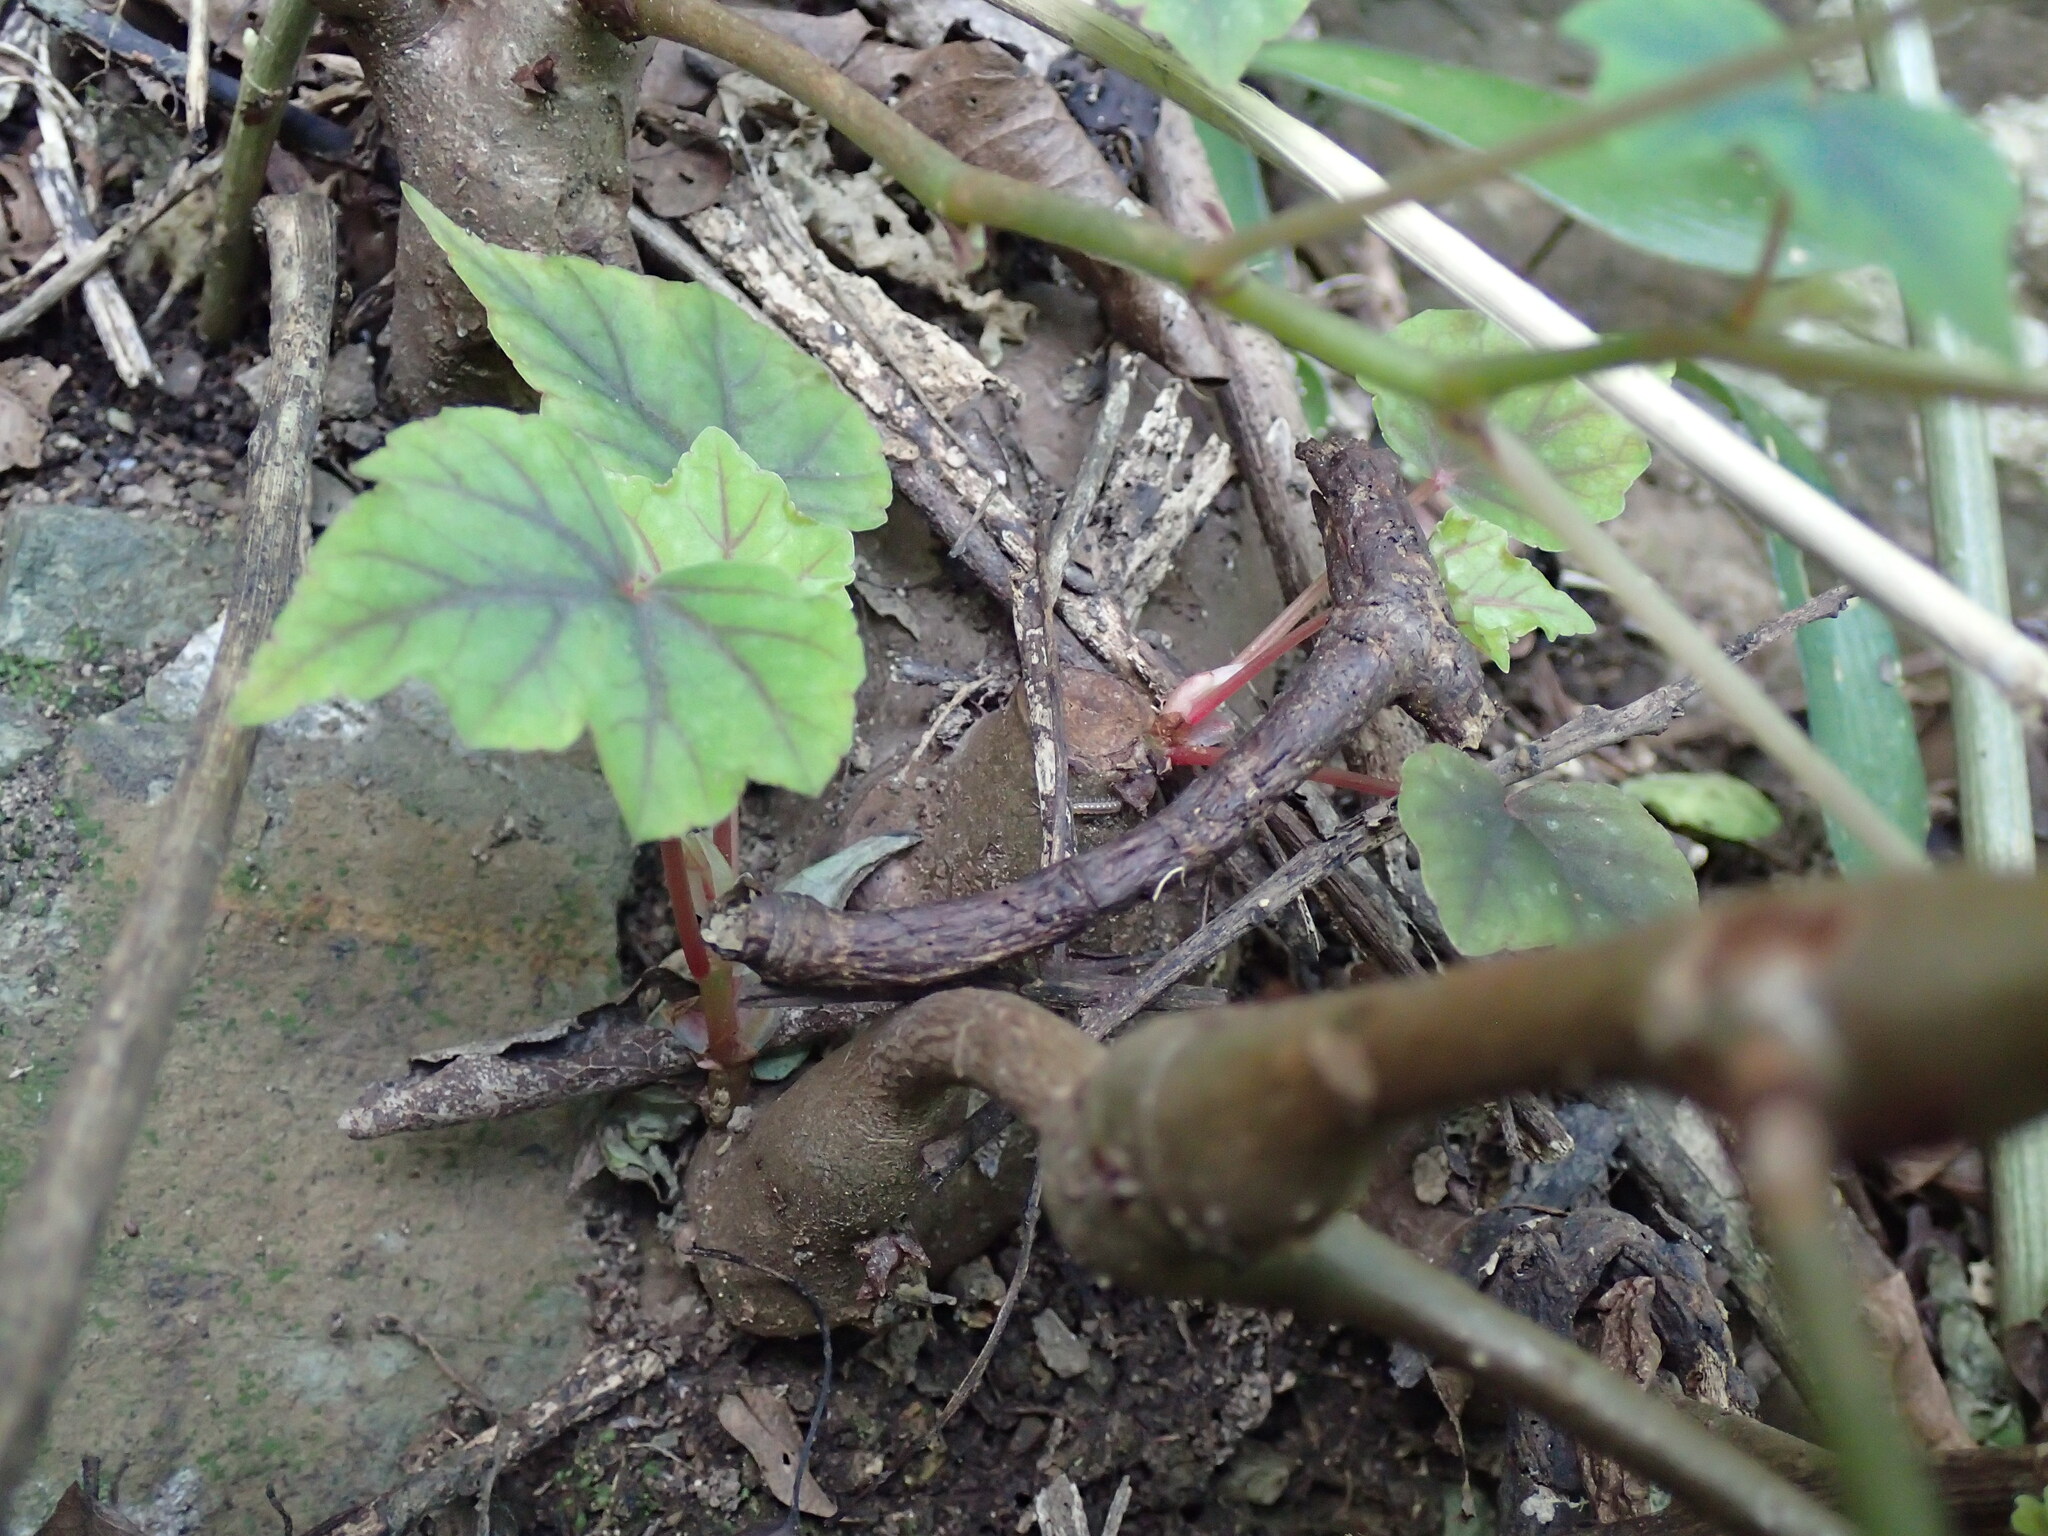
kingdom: Plantae
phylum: Tracheophyta
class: Magnoliopsida
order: Cucurbitales
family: Begoniaceae
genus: Begonia
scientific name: Begonia homonyma
